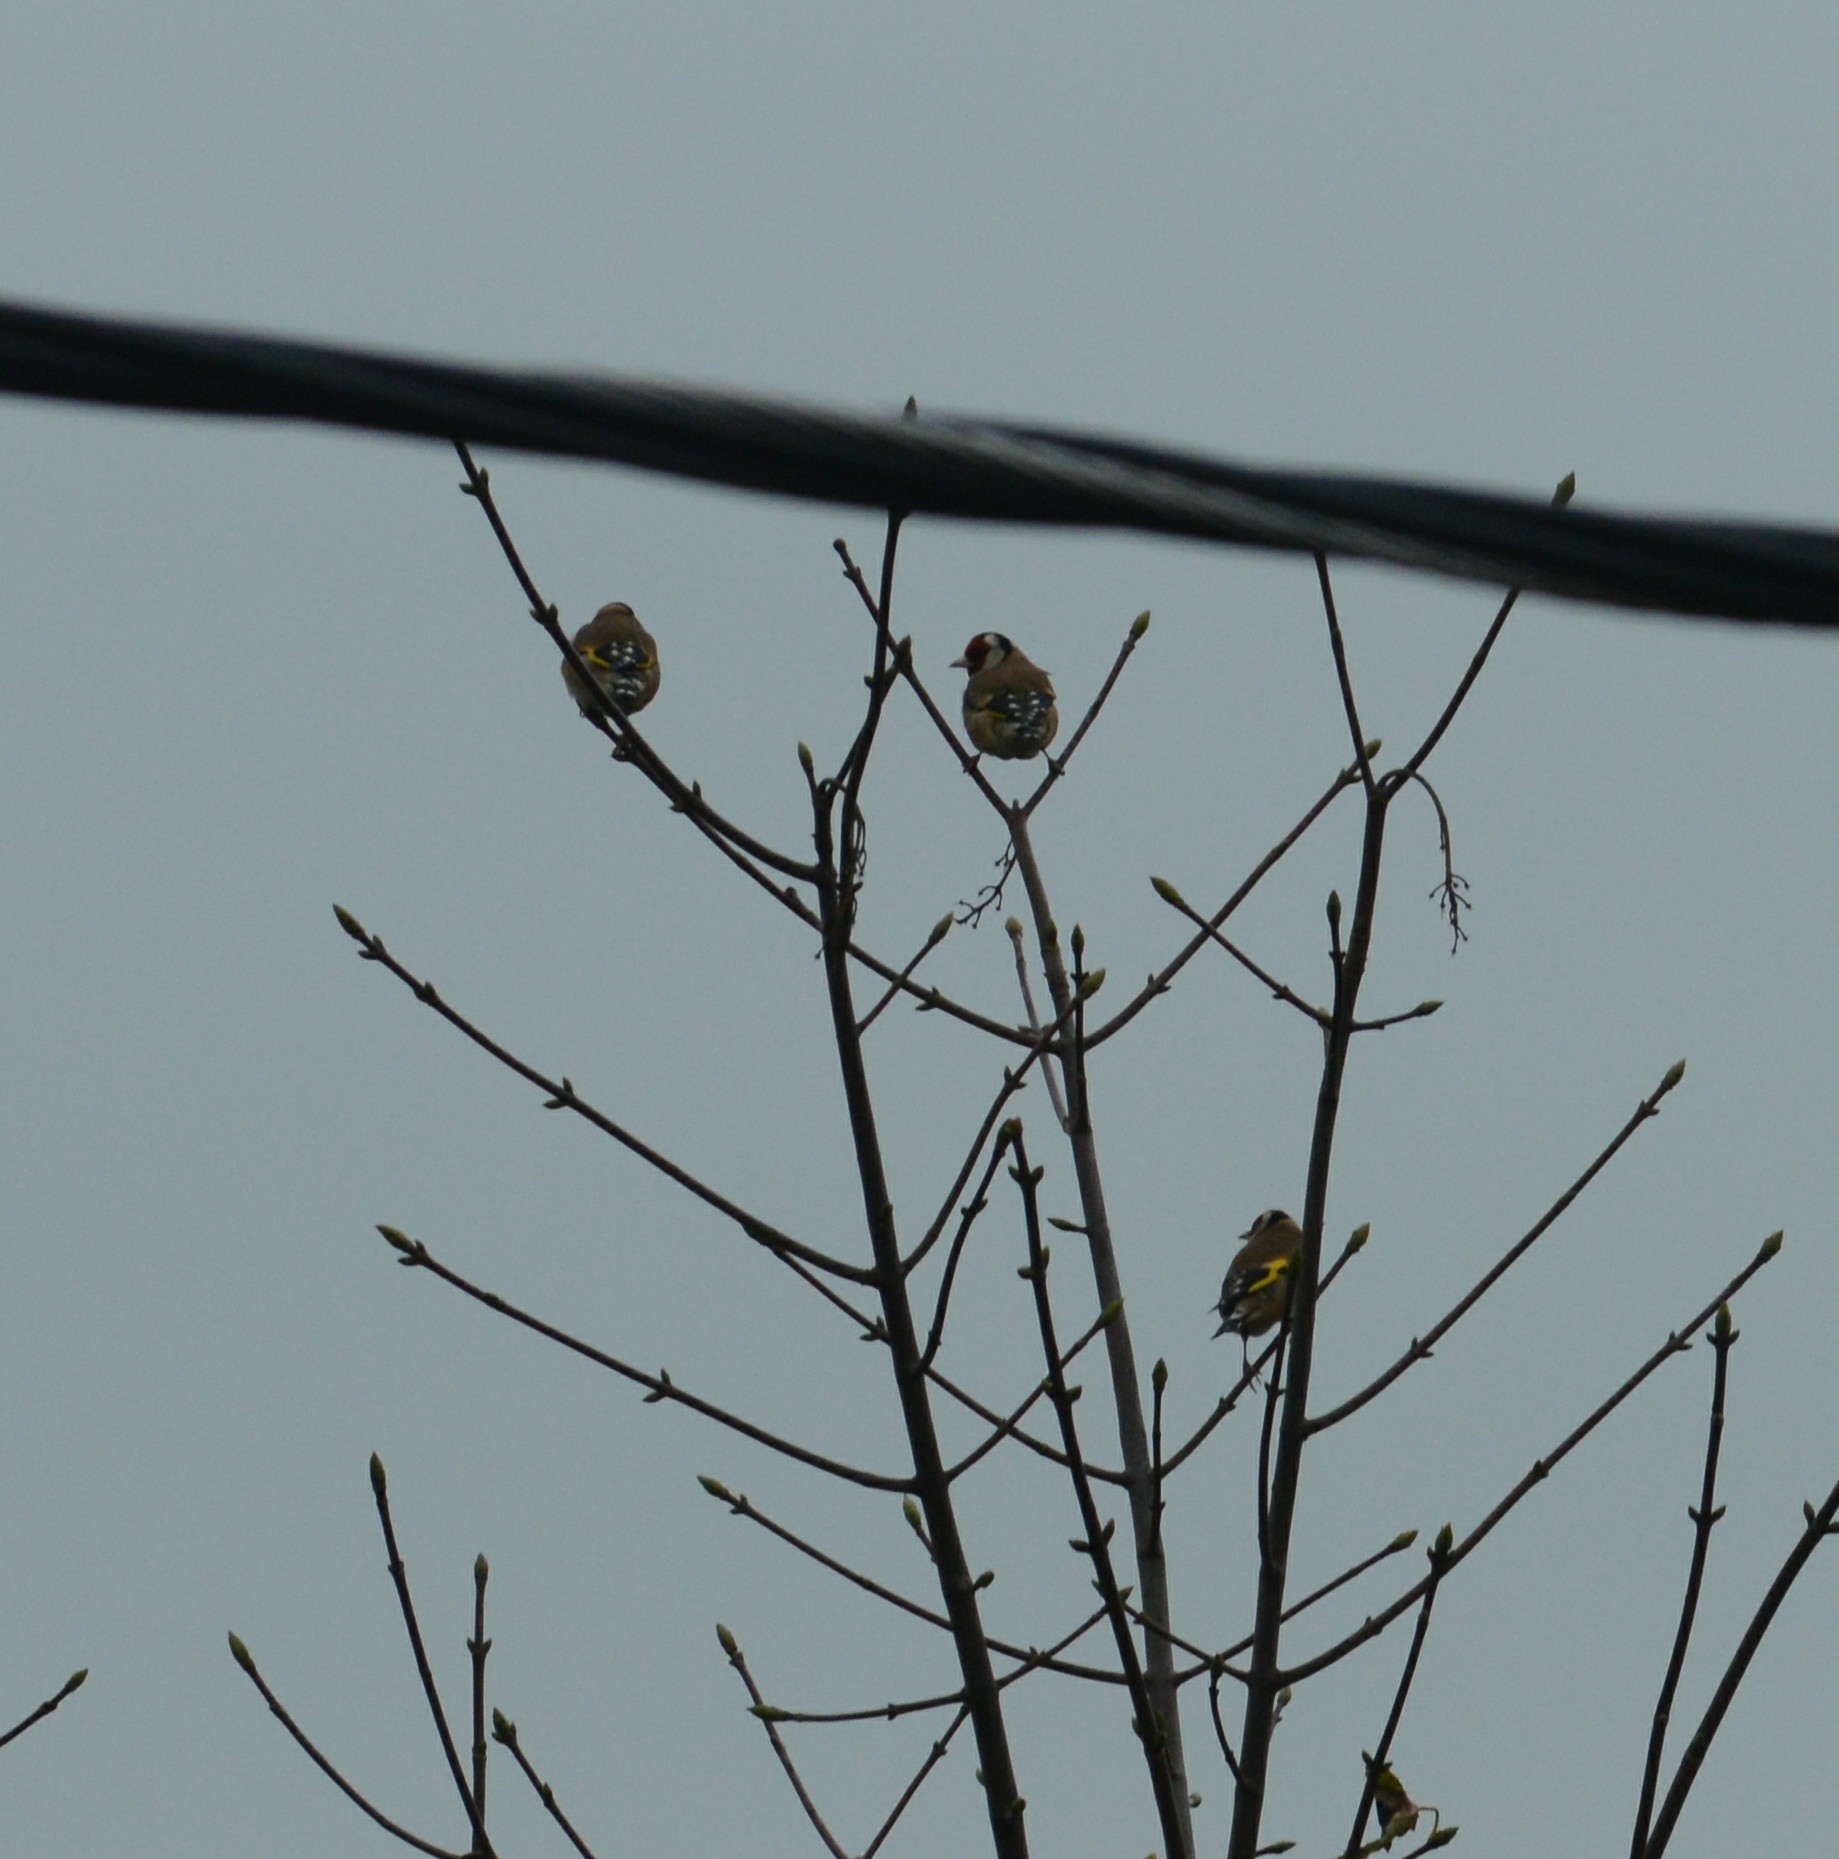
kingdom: Animalia
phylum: Chordata
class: Aves
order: Passeriformes
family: Fringillidae
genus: Carduelis
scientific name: Carduelis carduelis
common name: European goldfinch
